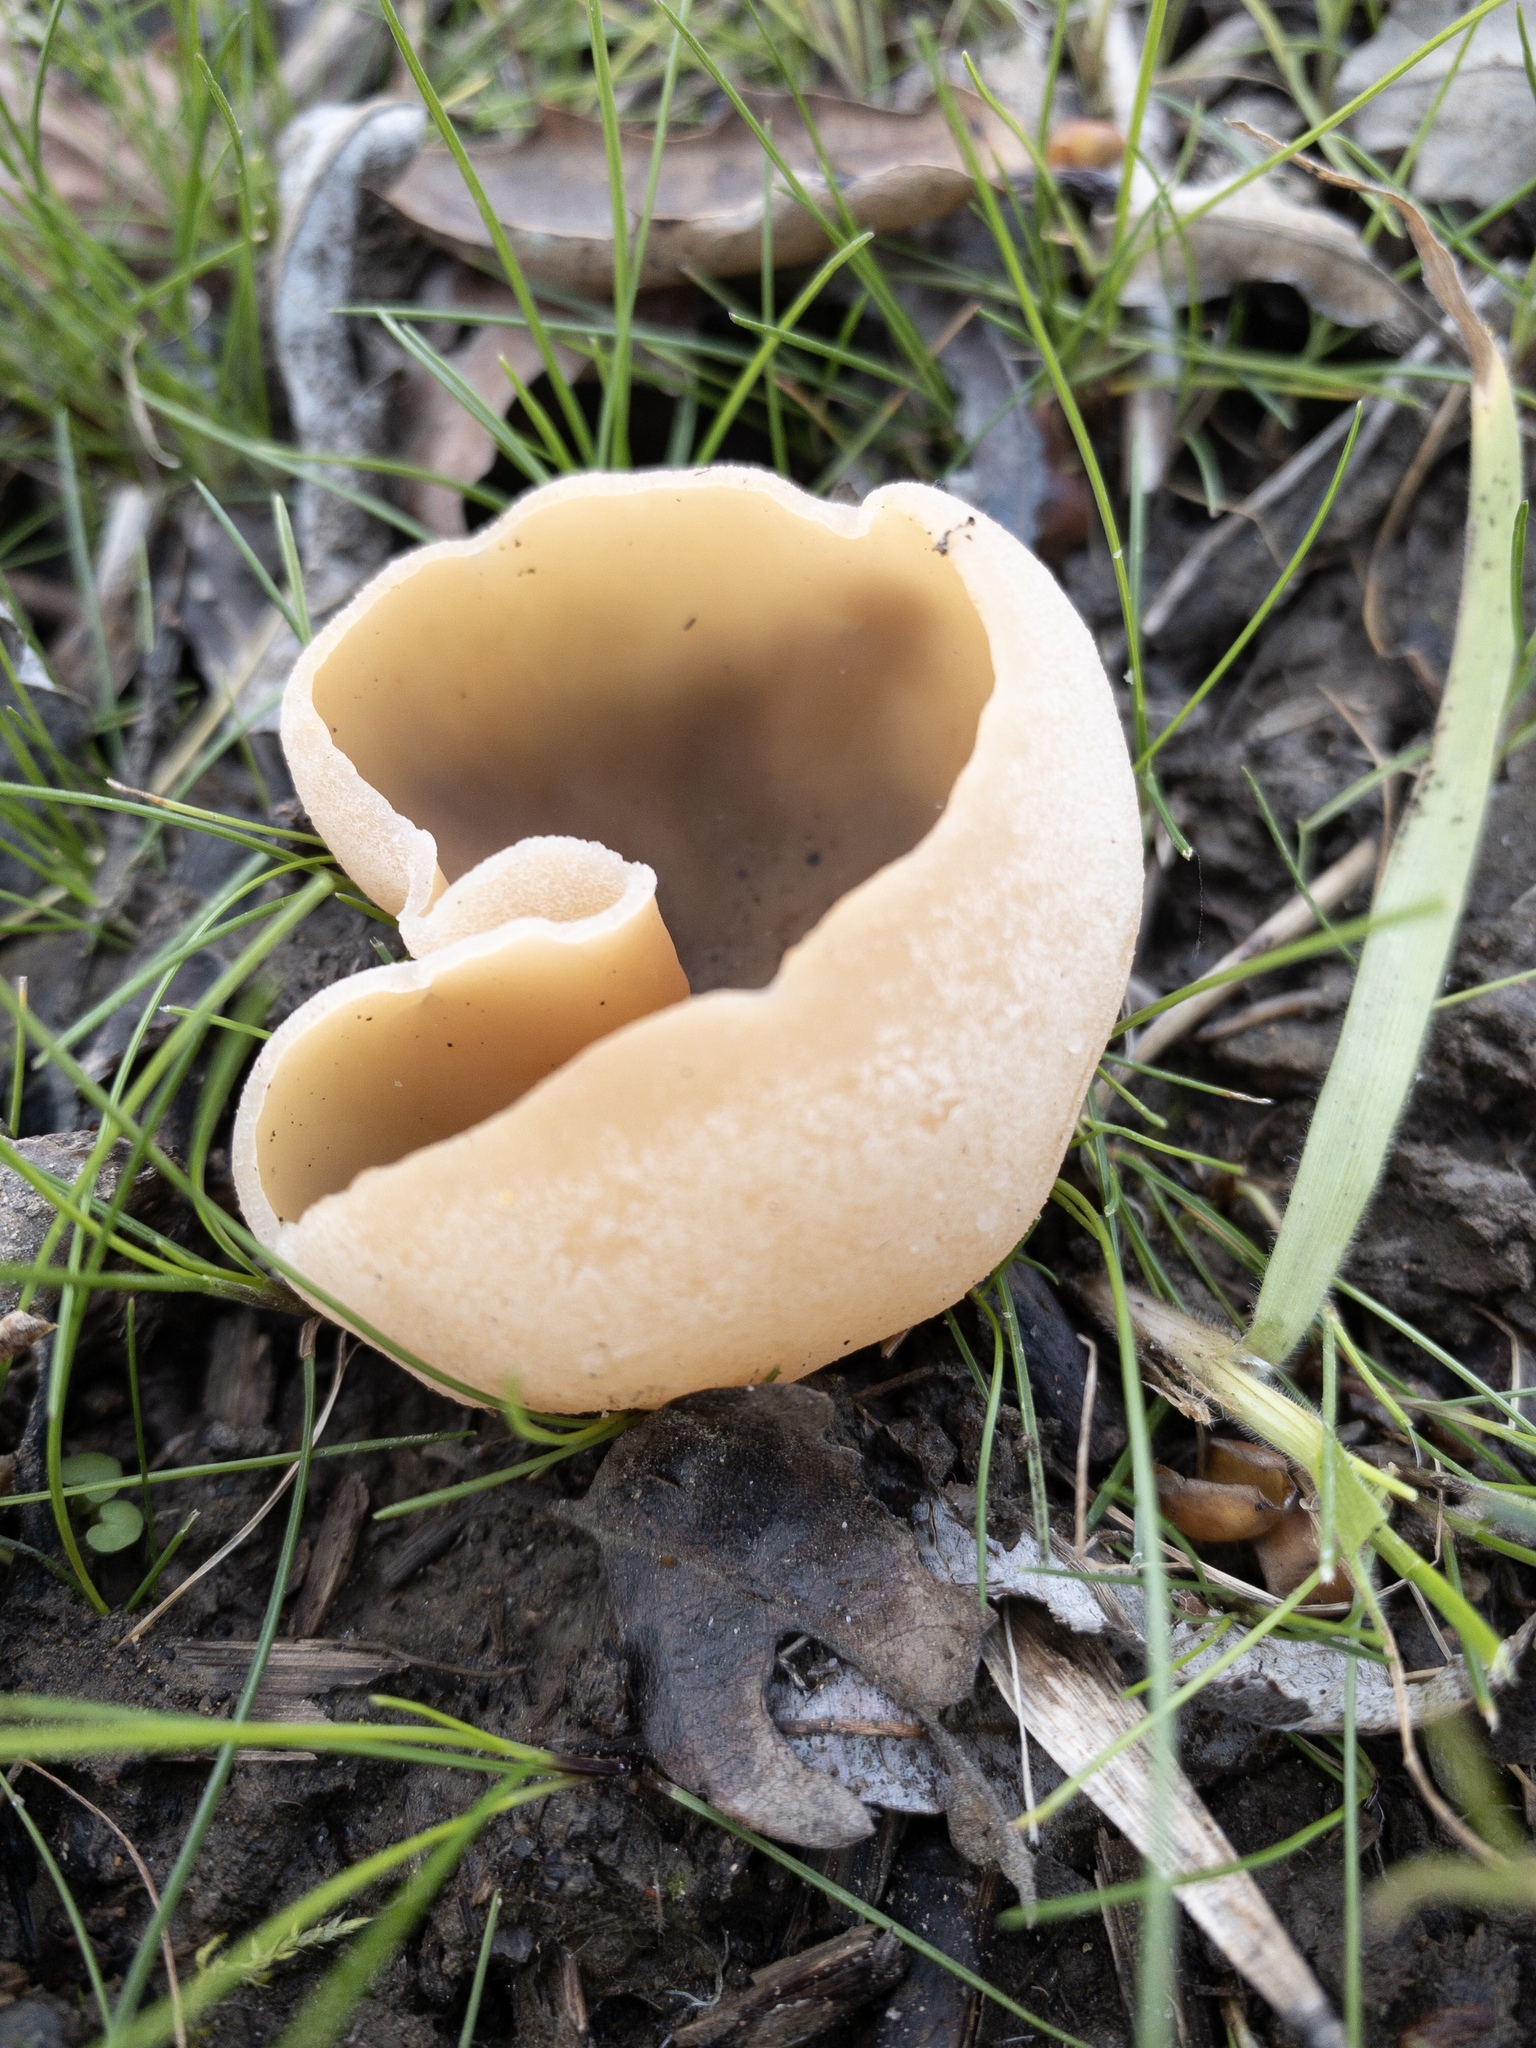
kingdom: Fungi
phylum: Ascomycota
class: Pezizomycetes
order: Pezizales
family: Pezizaceae
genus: Peziza
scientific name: Peziza varia
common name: Layered cup
